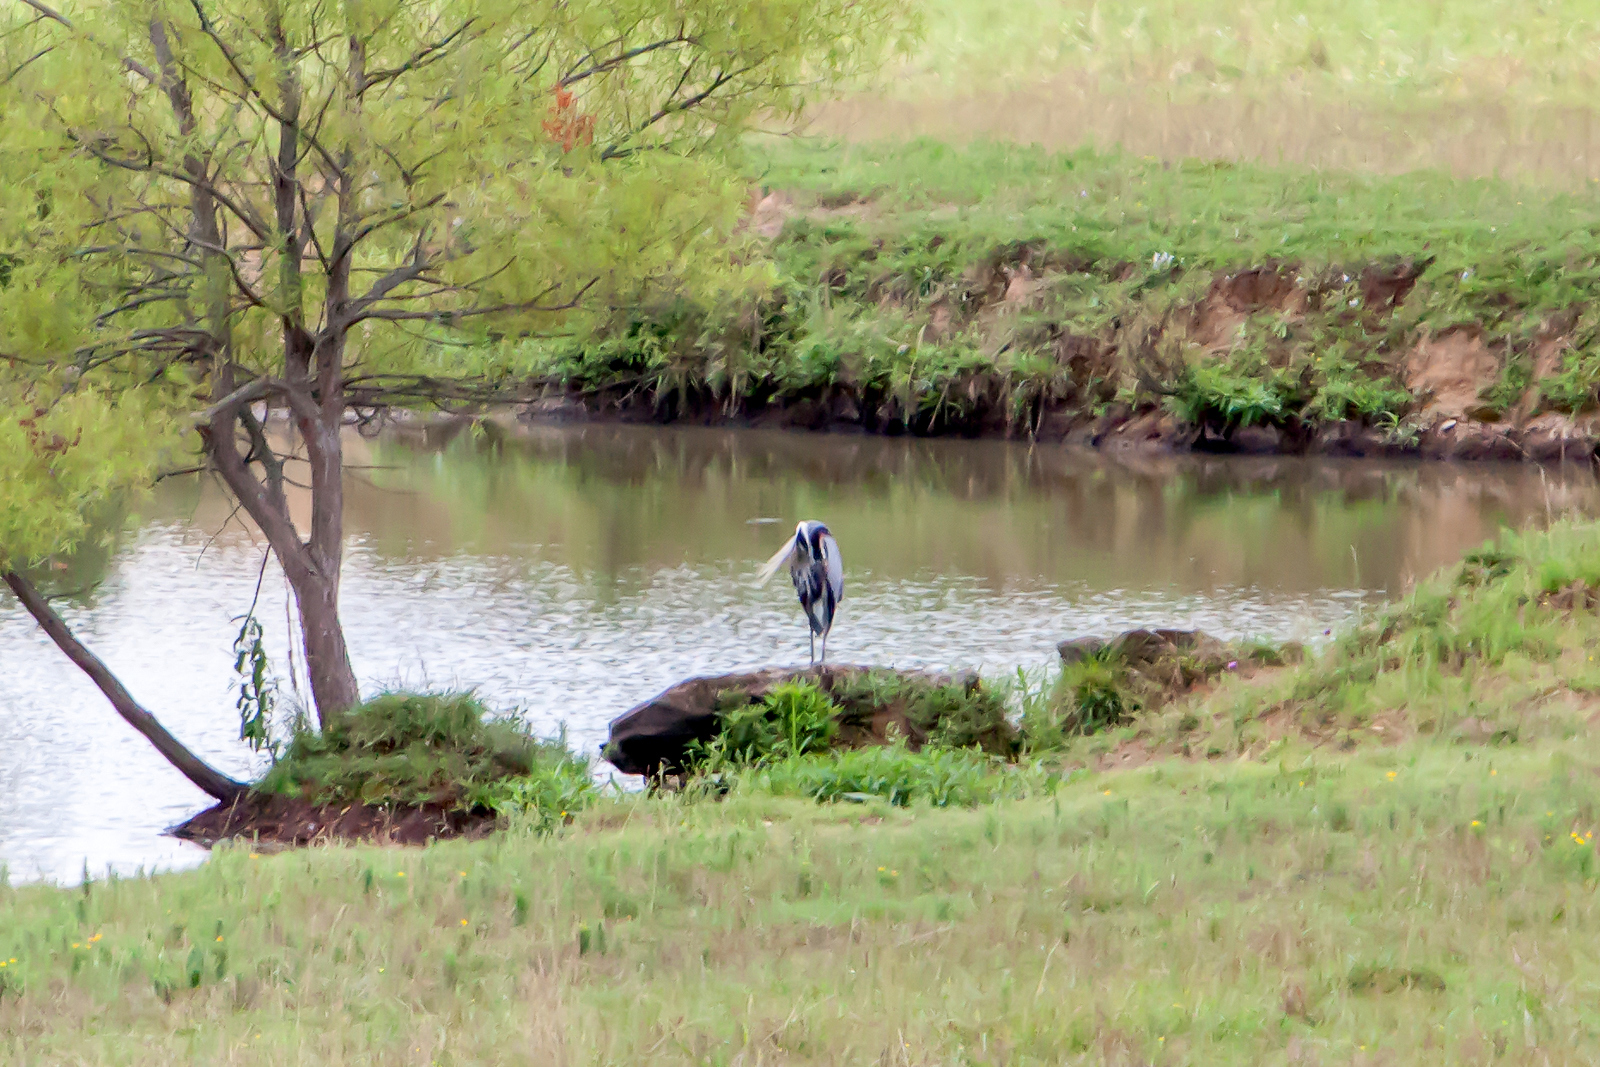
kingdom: Animalia
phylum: Chordata
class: Aves
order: Pelecaniformes
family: Ardeidae
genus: Ardea
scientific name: Ardea herodias
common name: Great blue heron
